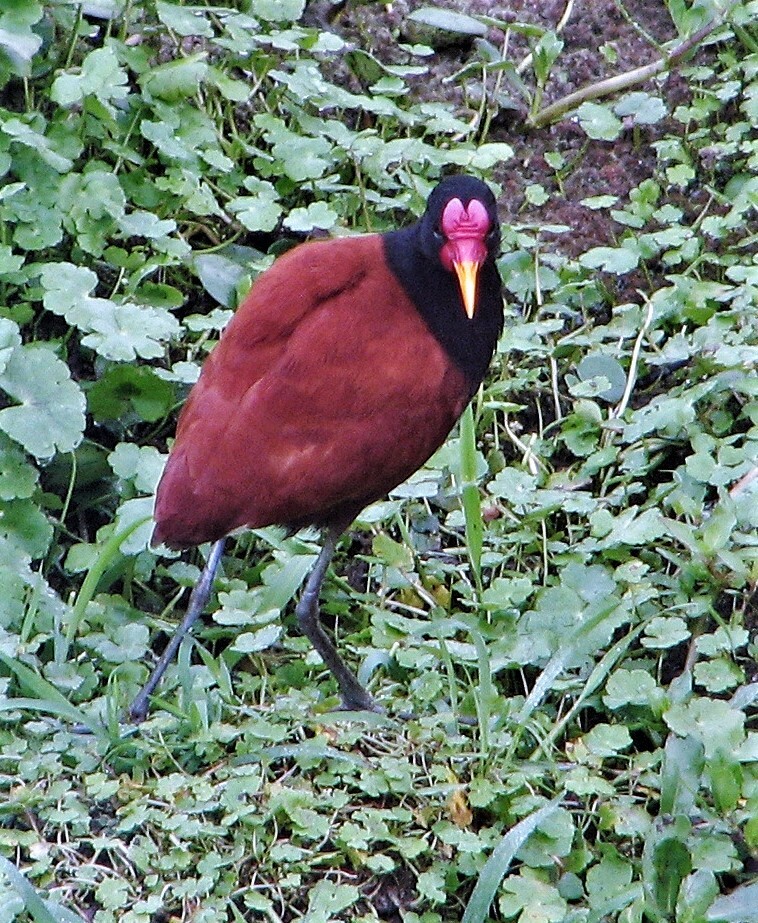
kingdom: Animalia
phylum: Chordata
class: Aves
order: Charadriiformes
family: Jacanidae
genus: Jacana
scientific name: Jacana jacana
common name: Wattled jacana
